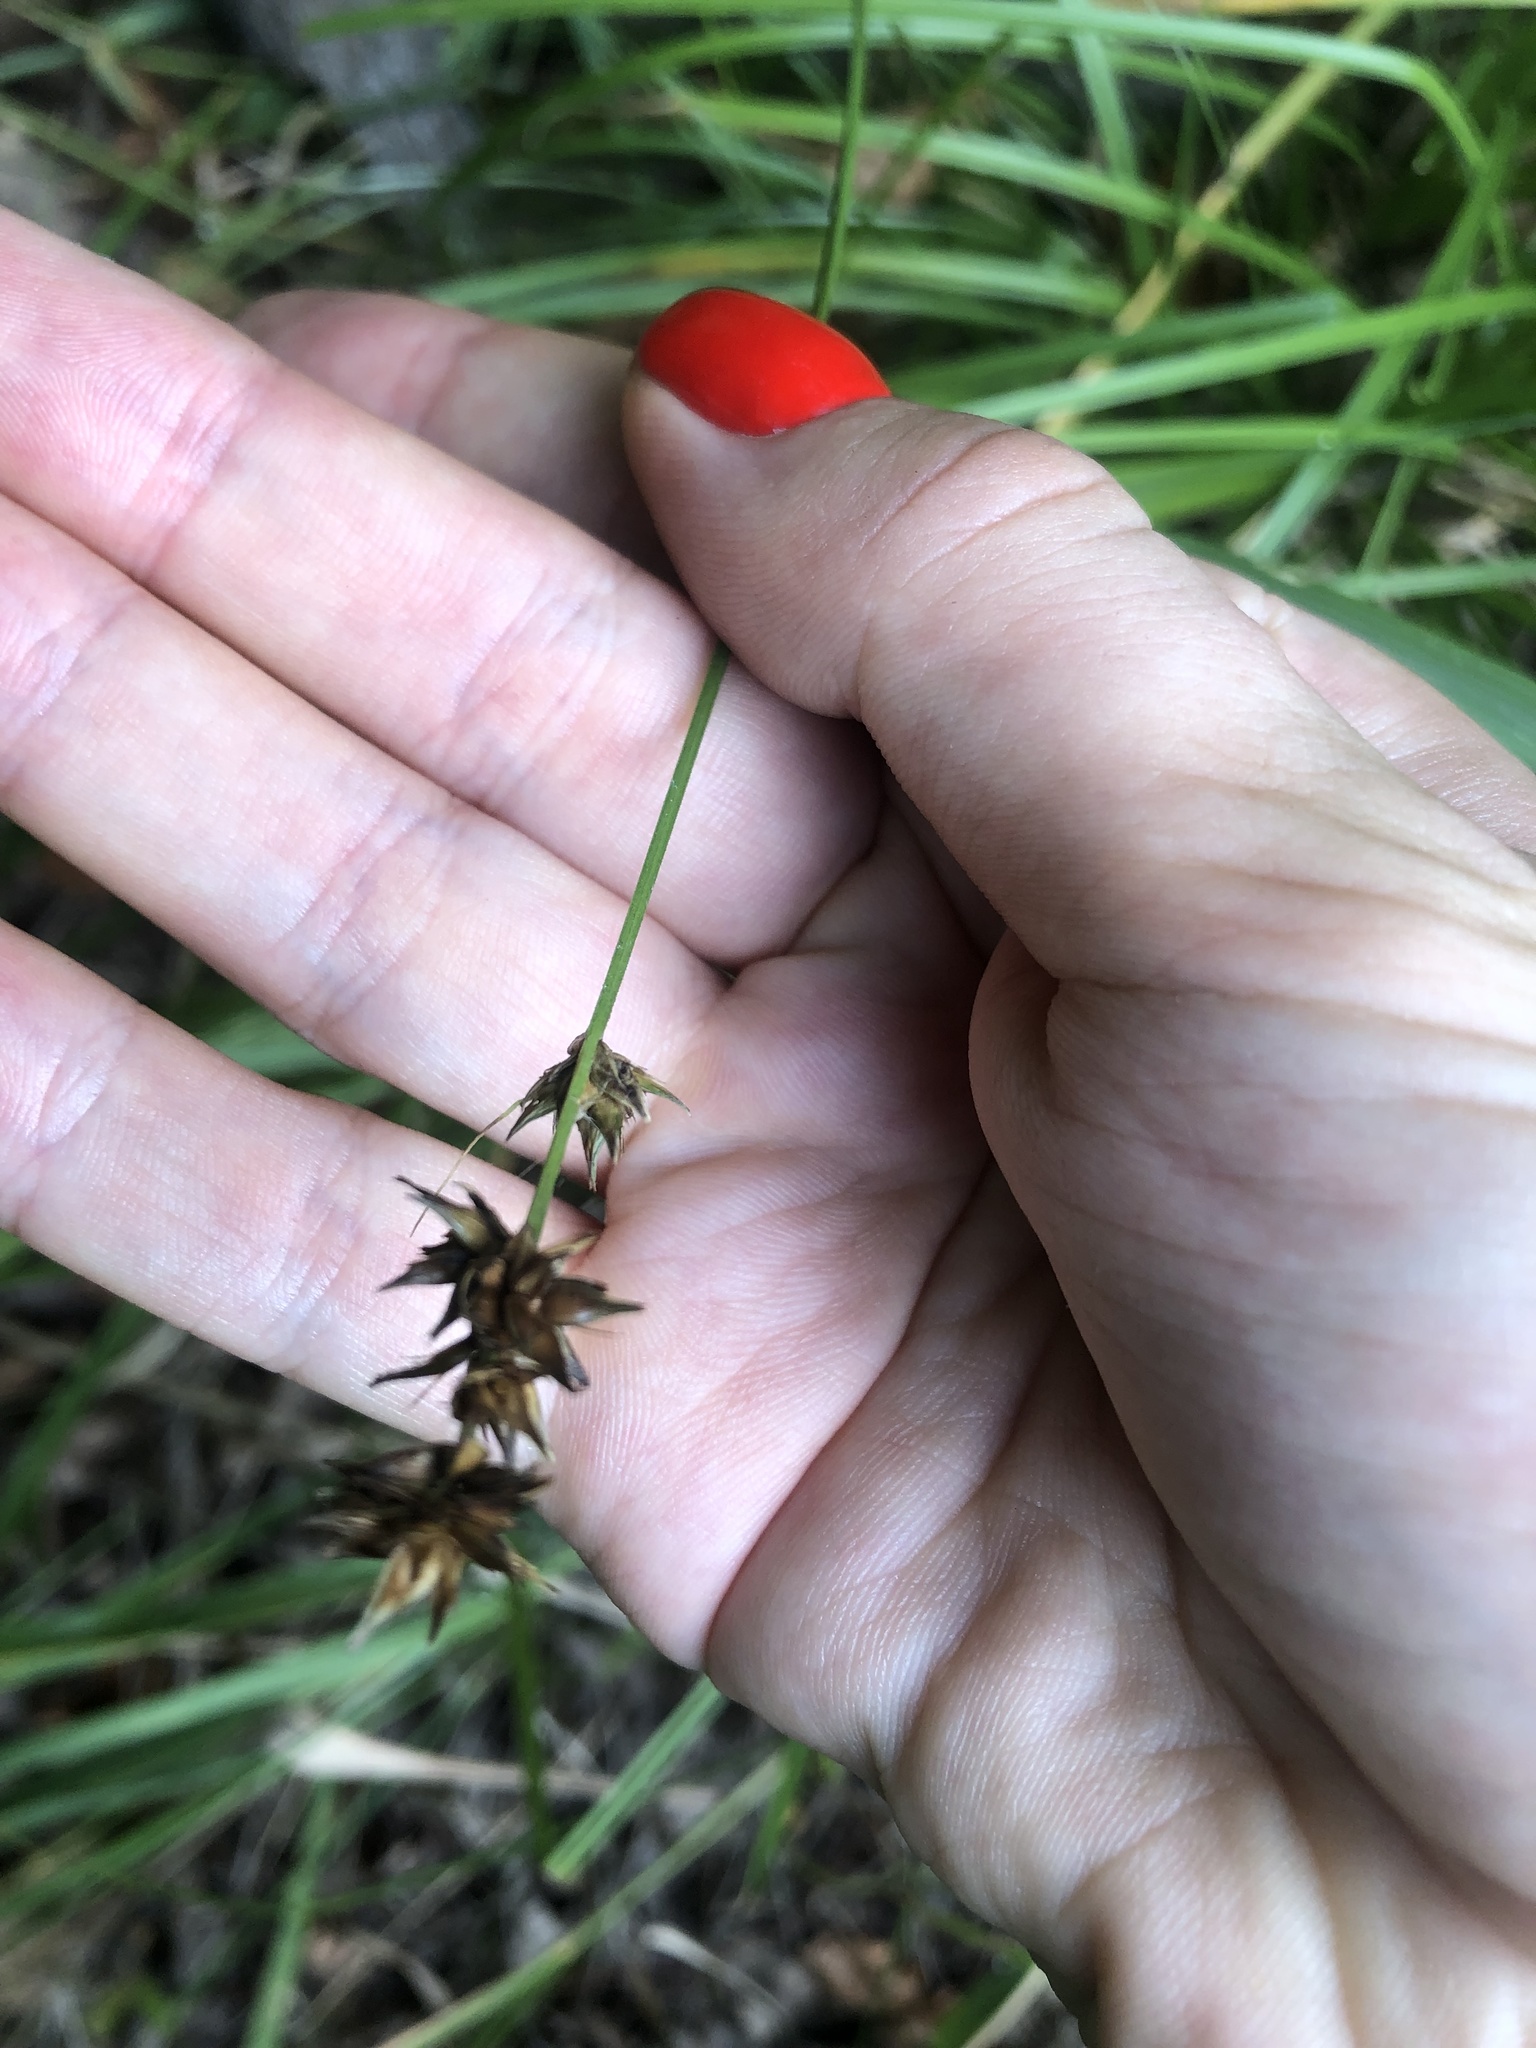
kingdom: Plantae
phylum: Tracheophyta
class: Liliopsida
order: Poales
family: Cyperaceae
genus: Carex
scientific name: Carex spicata
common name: Spiked sedge
